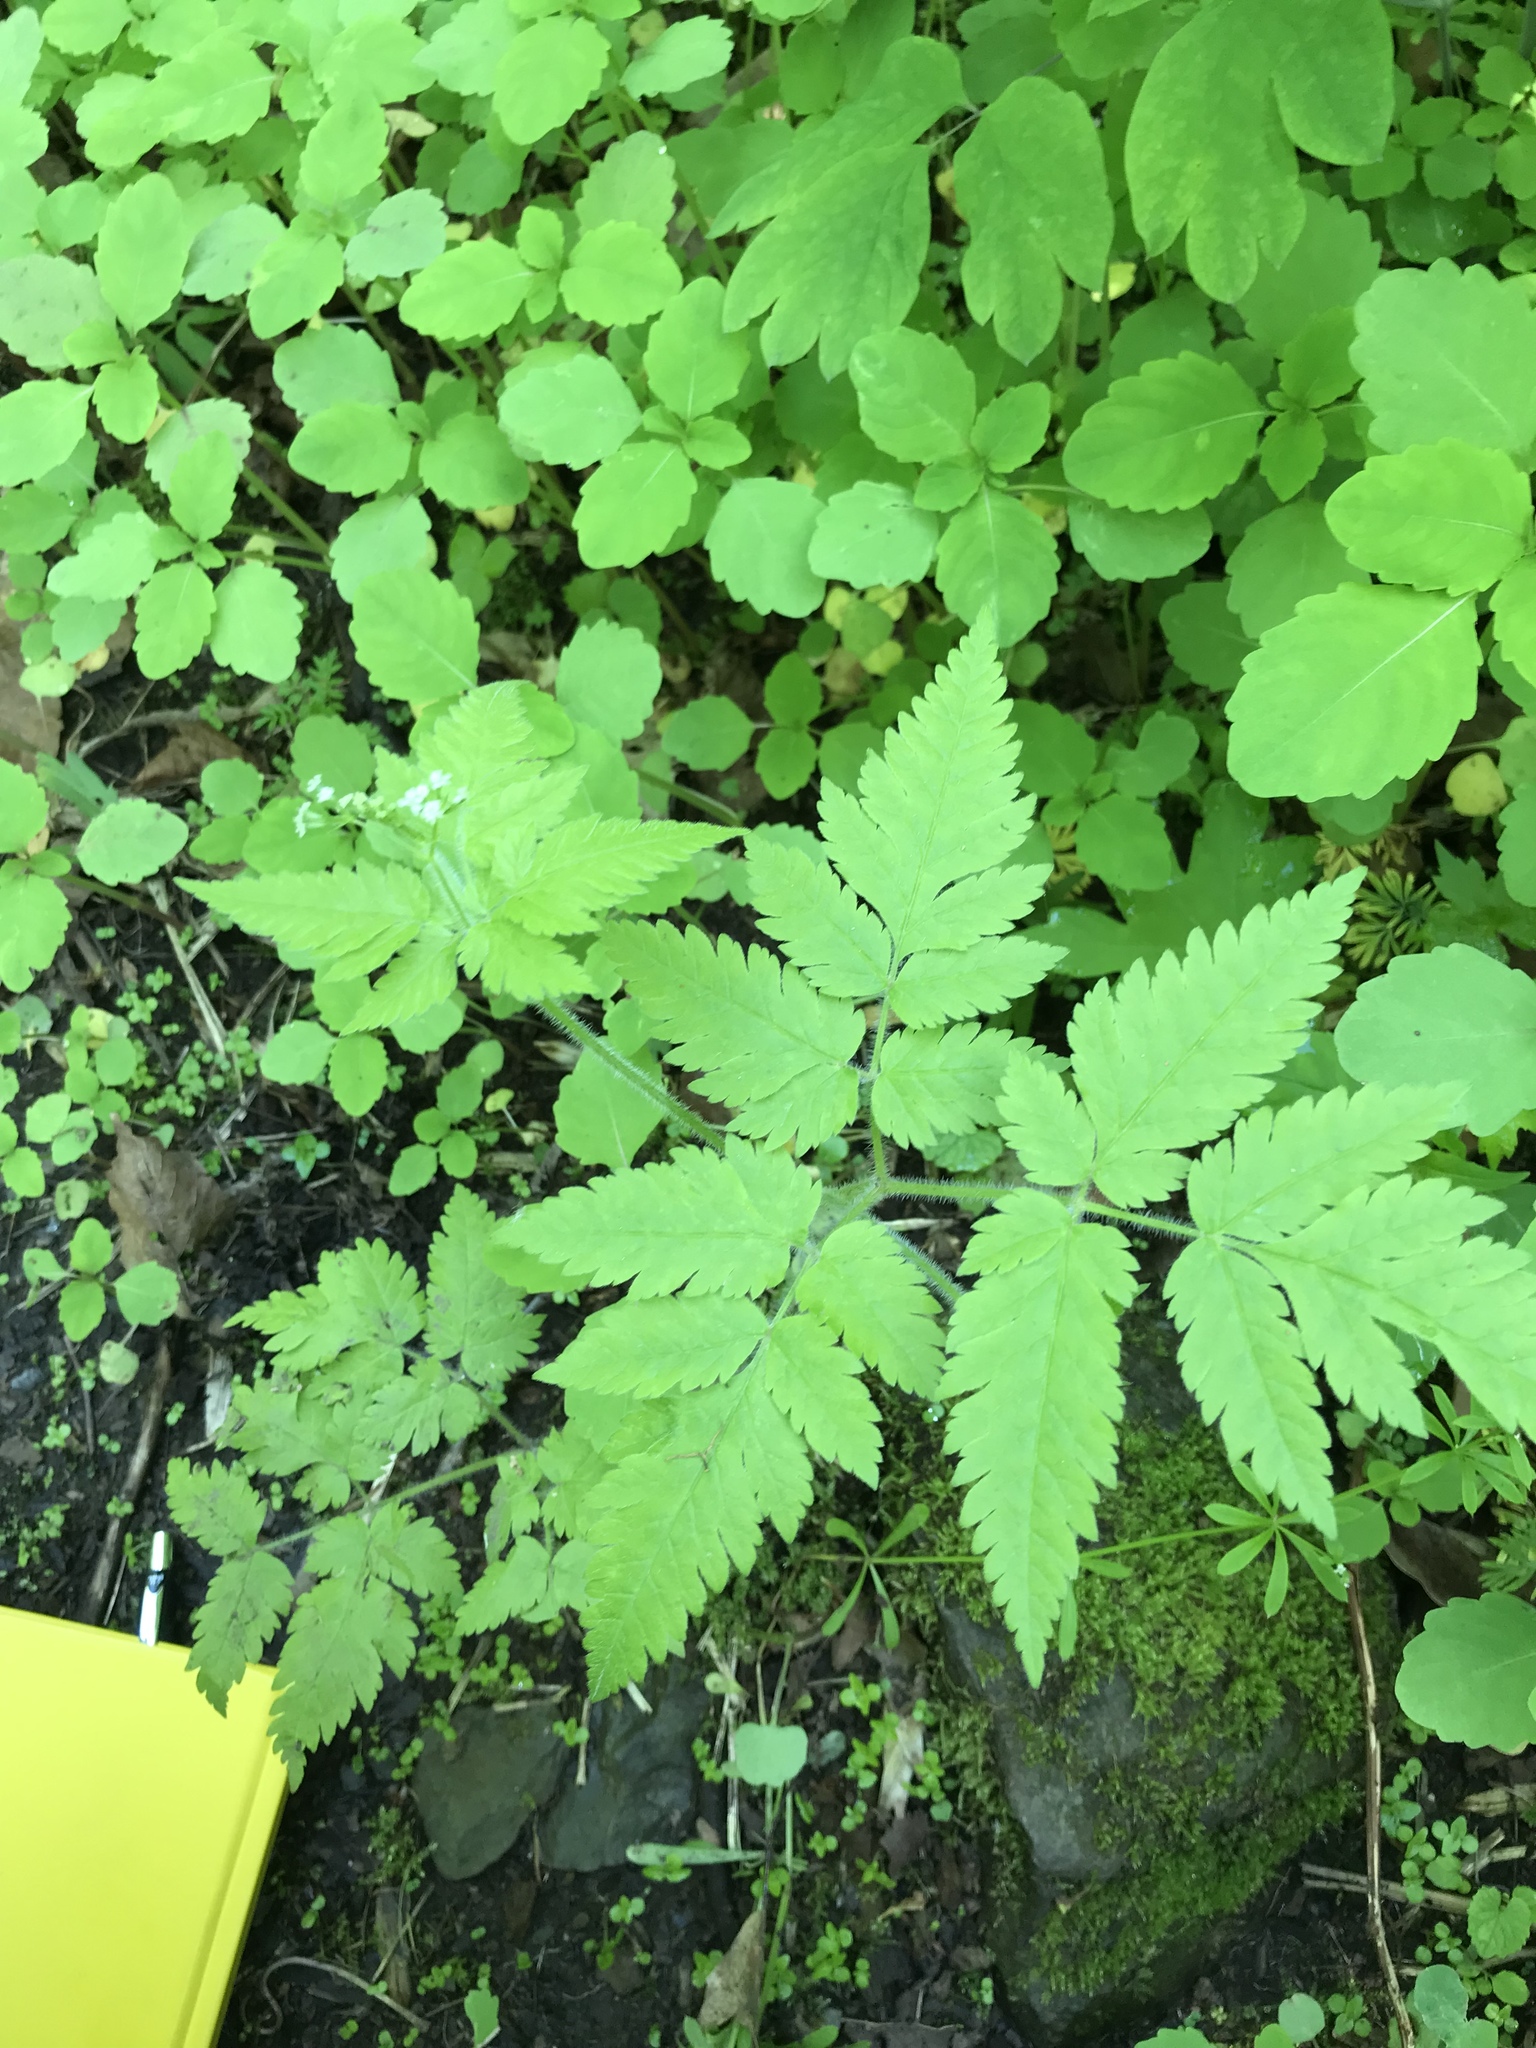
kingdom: Plantae
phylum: Tracheophyta
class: Magnoliopsida
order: Apiales
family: Apiaceae
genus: Osmorhiza
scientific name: Osmorhiza claytonii
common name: Hairy sweet cicely
